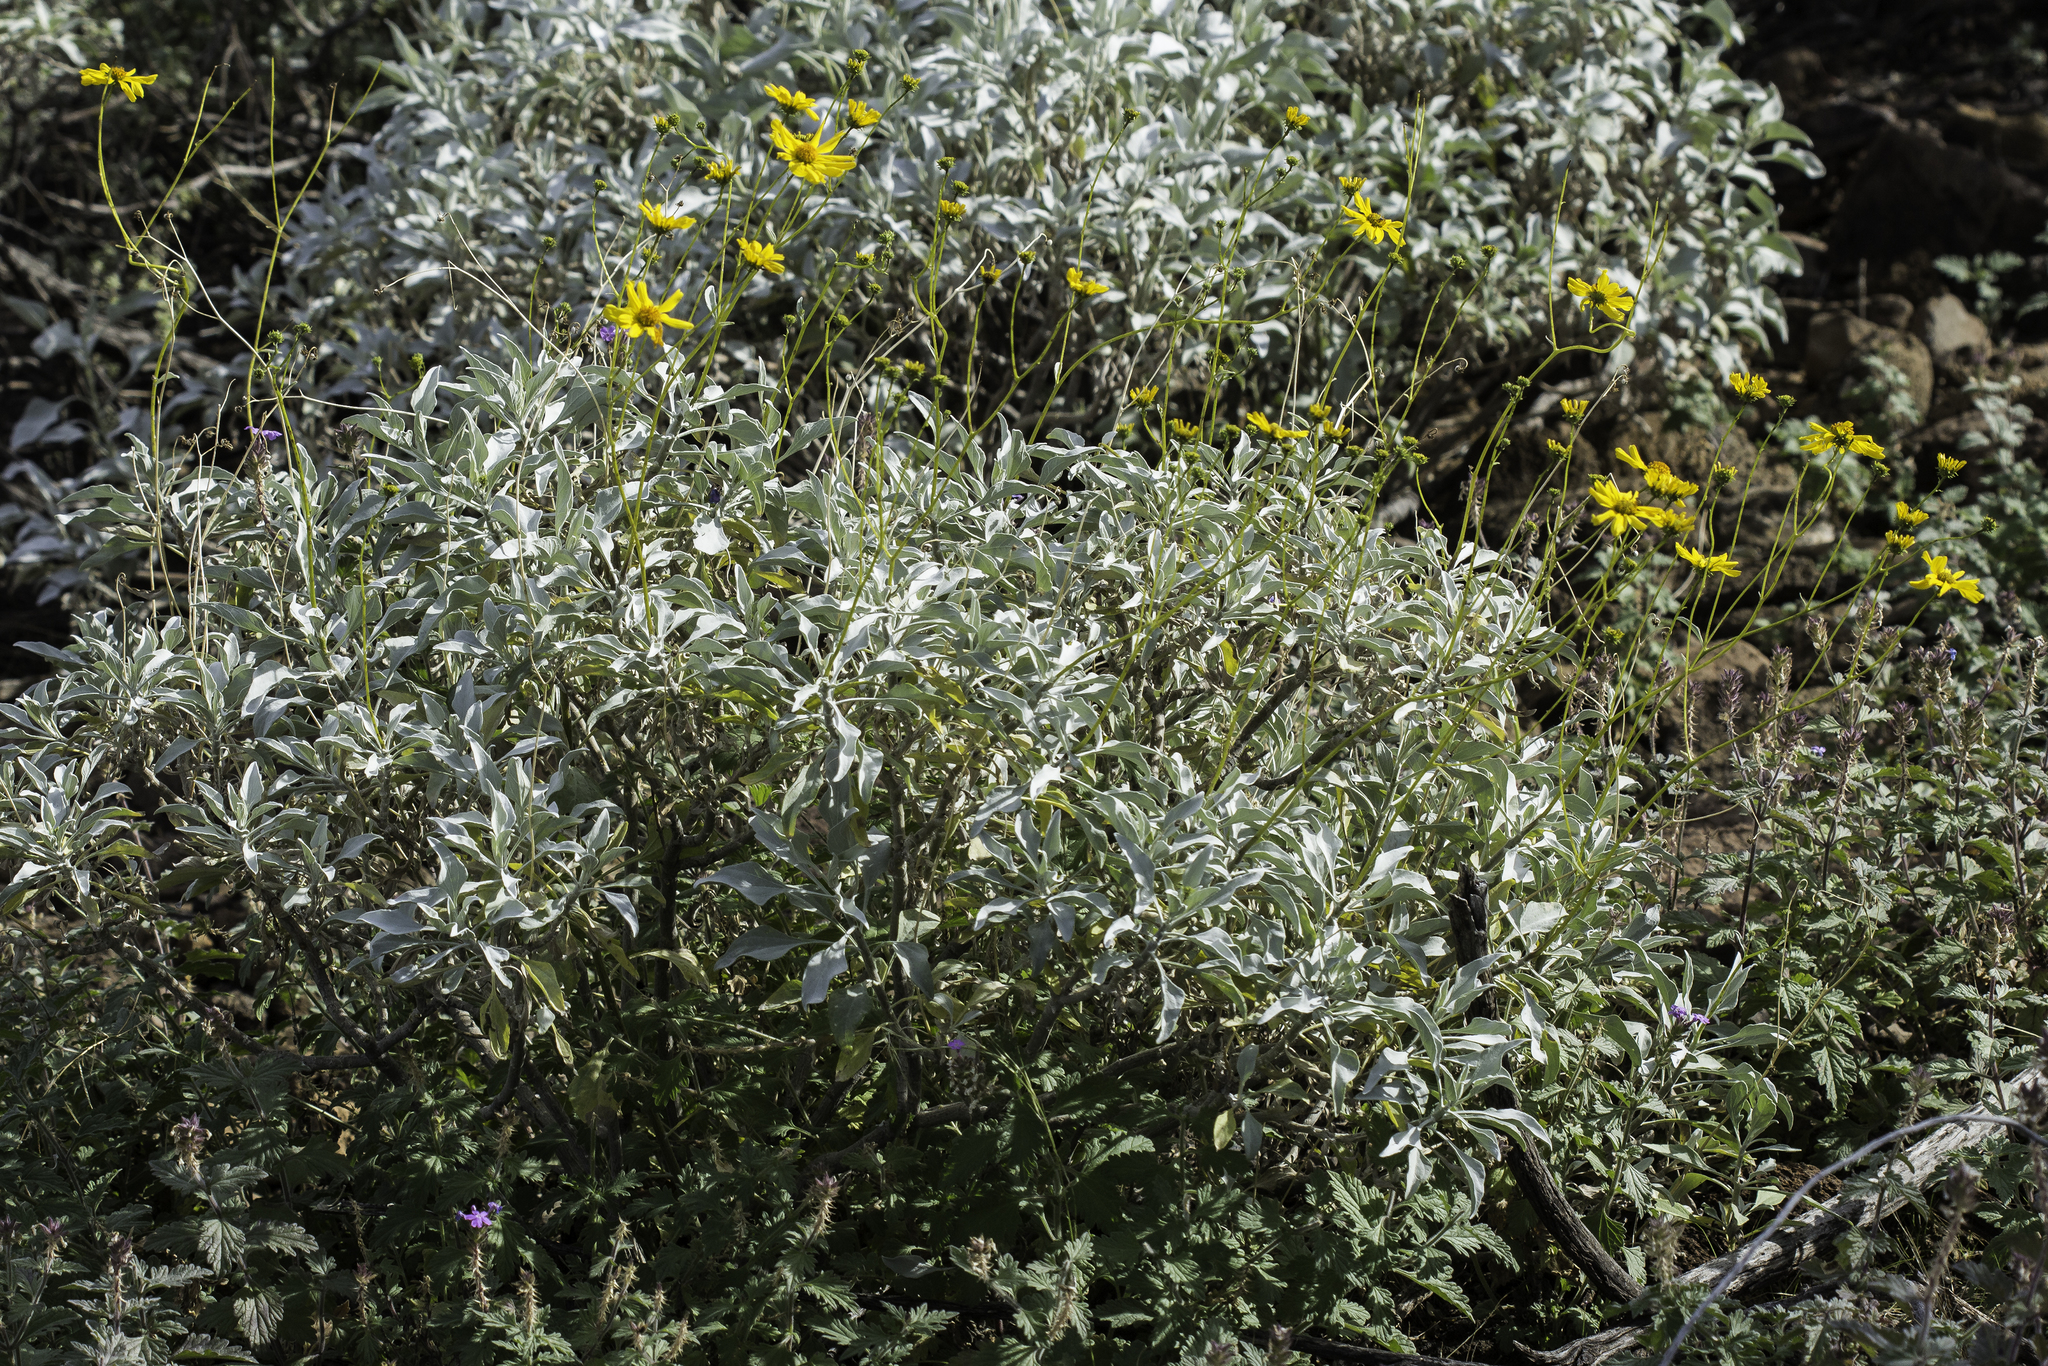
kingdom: Plantae
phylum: Tracheophyta
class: Magnoliopsida
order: Asterales
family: Asteraceae
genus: Encelia
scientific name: Encelia farinosa
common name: Brittlebush
